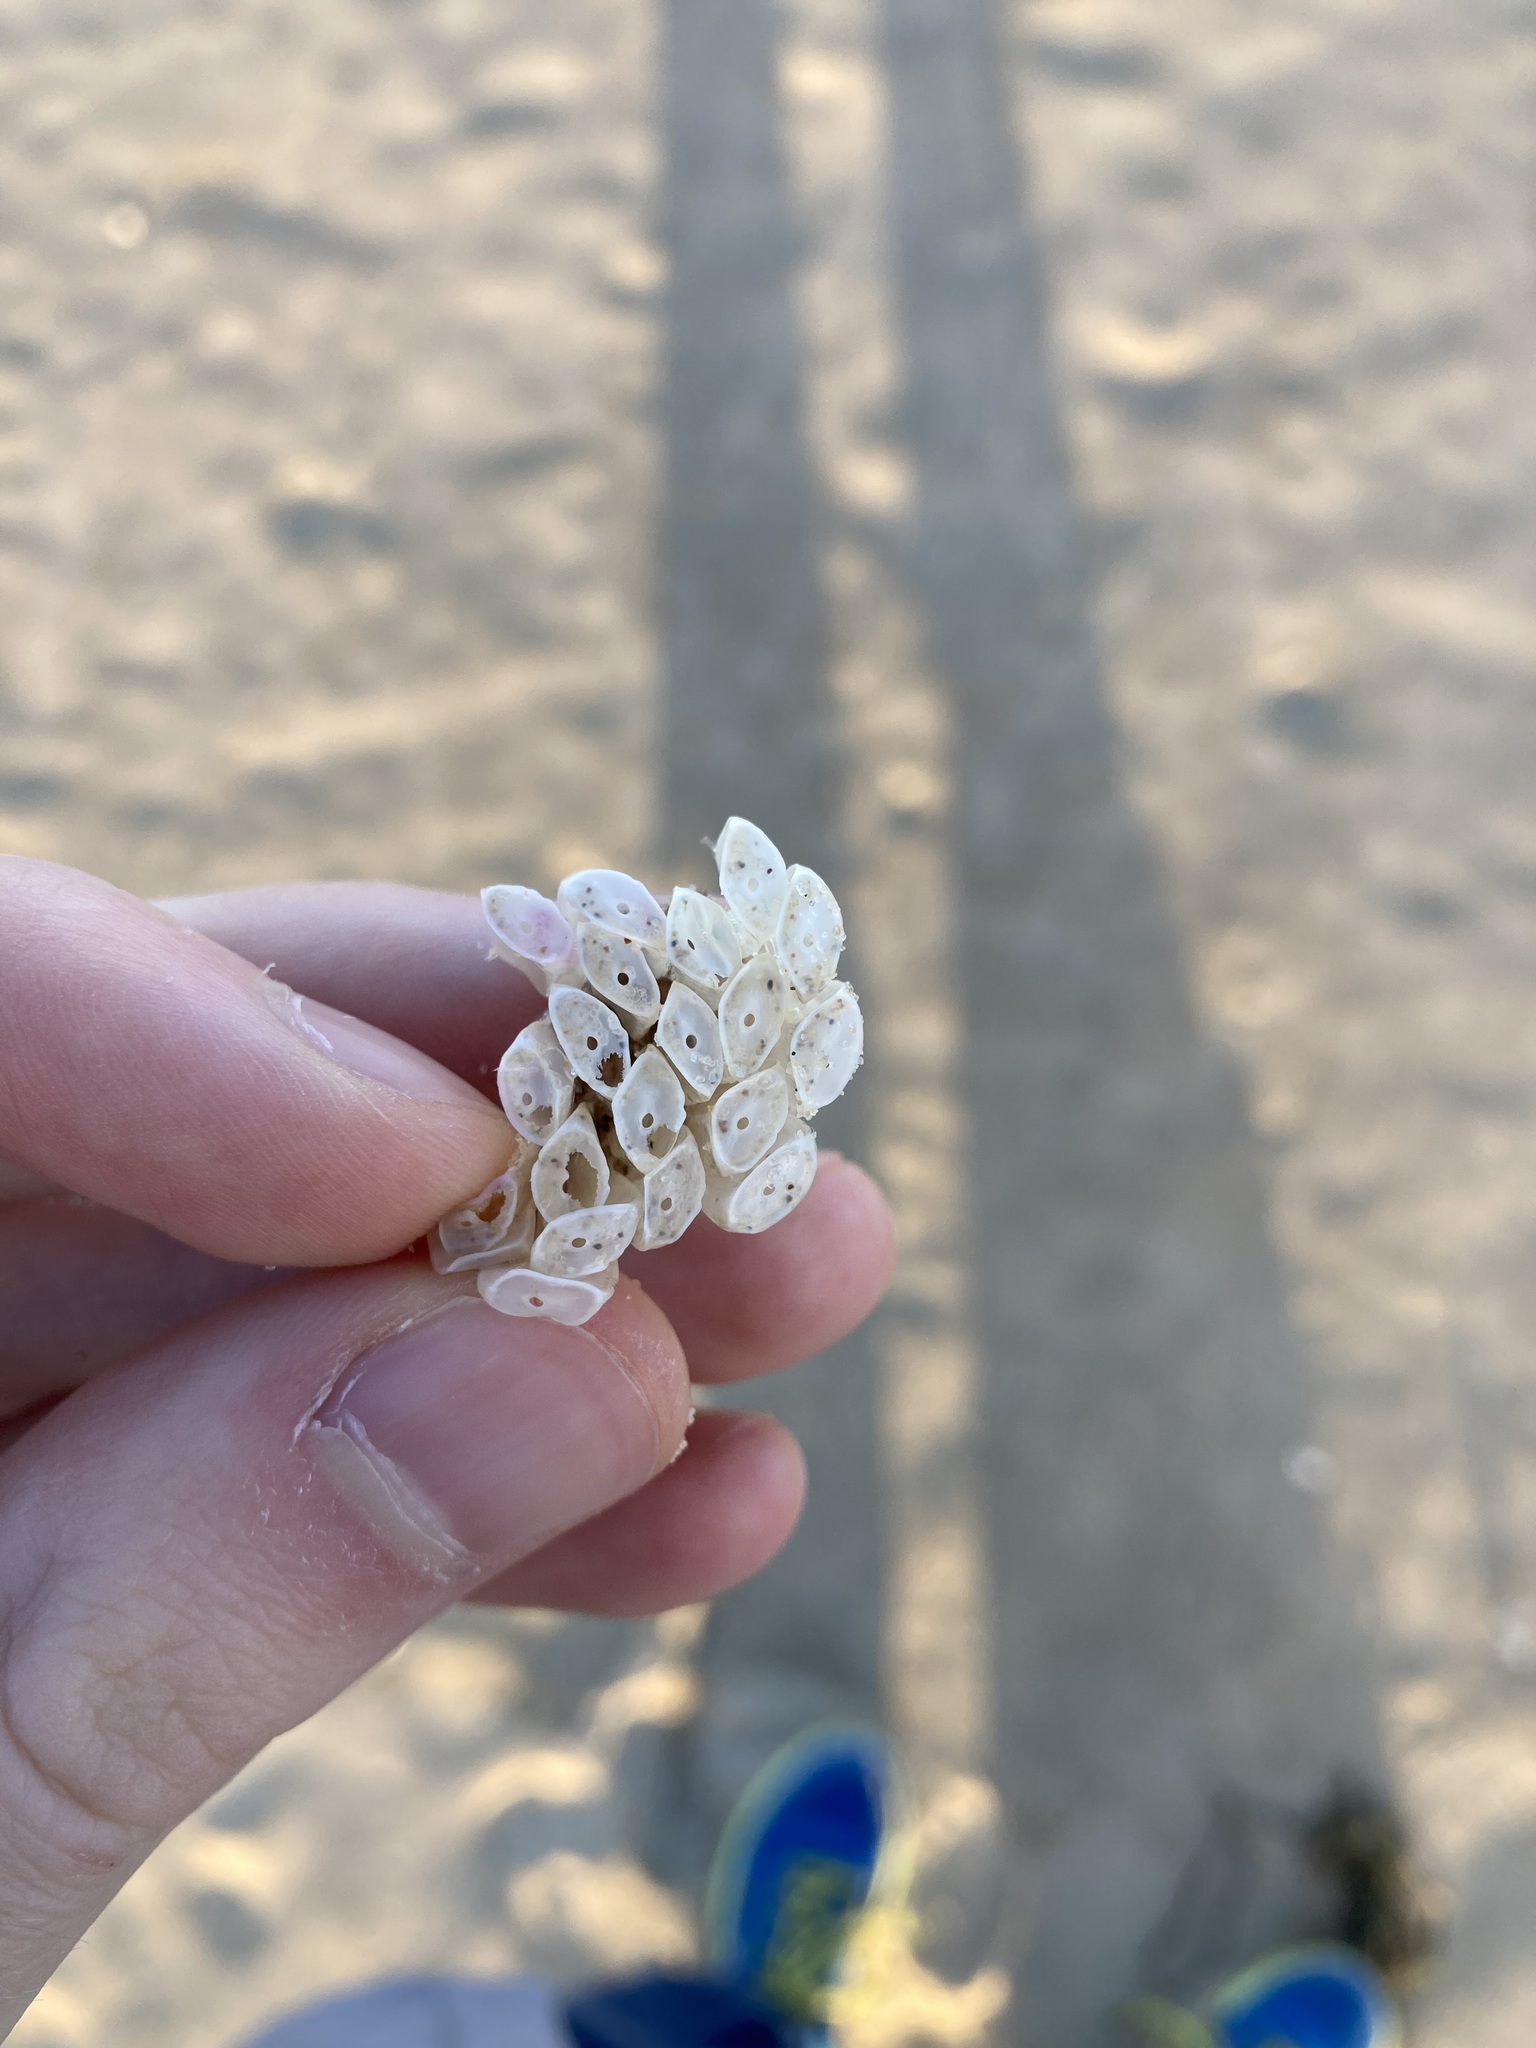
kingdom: Animalia
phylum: Mollusca
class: Gastropoda
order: Neogastropoda
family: Muricidae
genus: Dicathais
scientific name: Dicathais orbita
